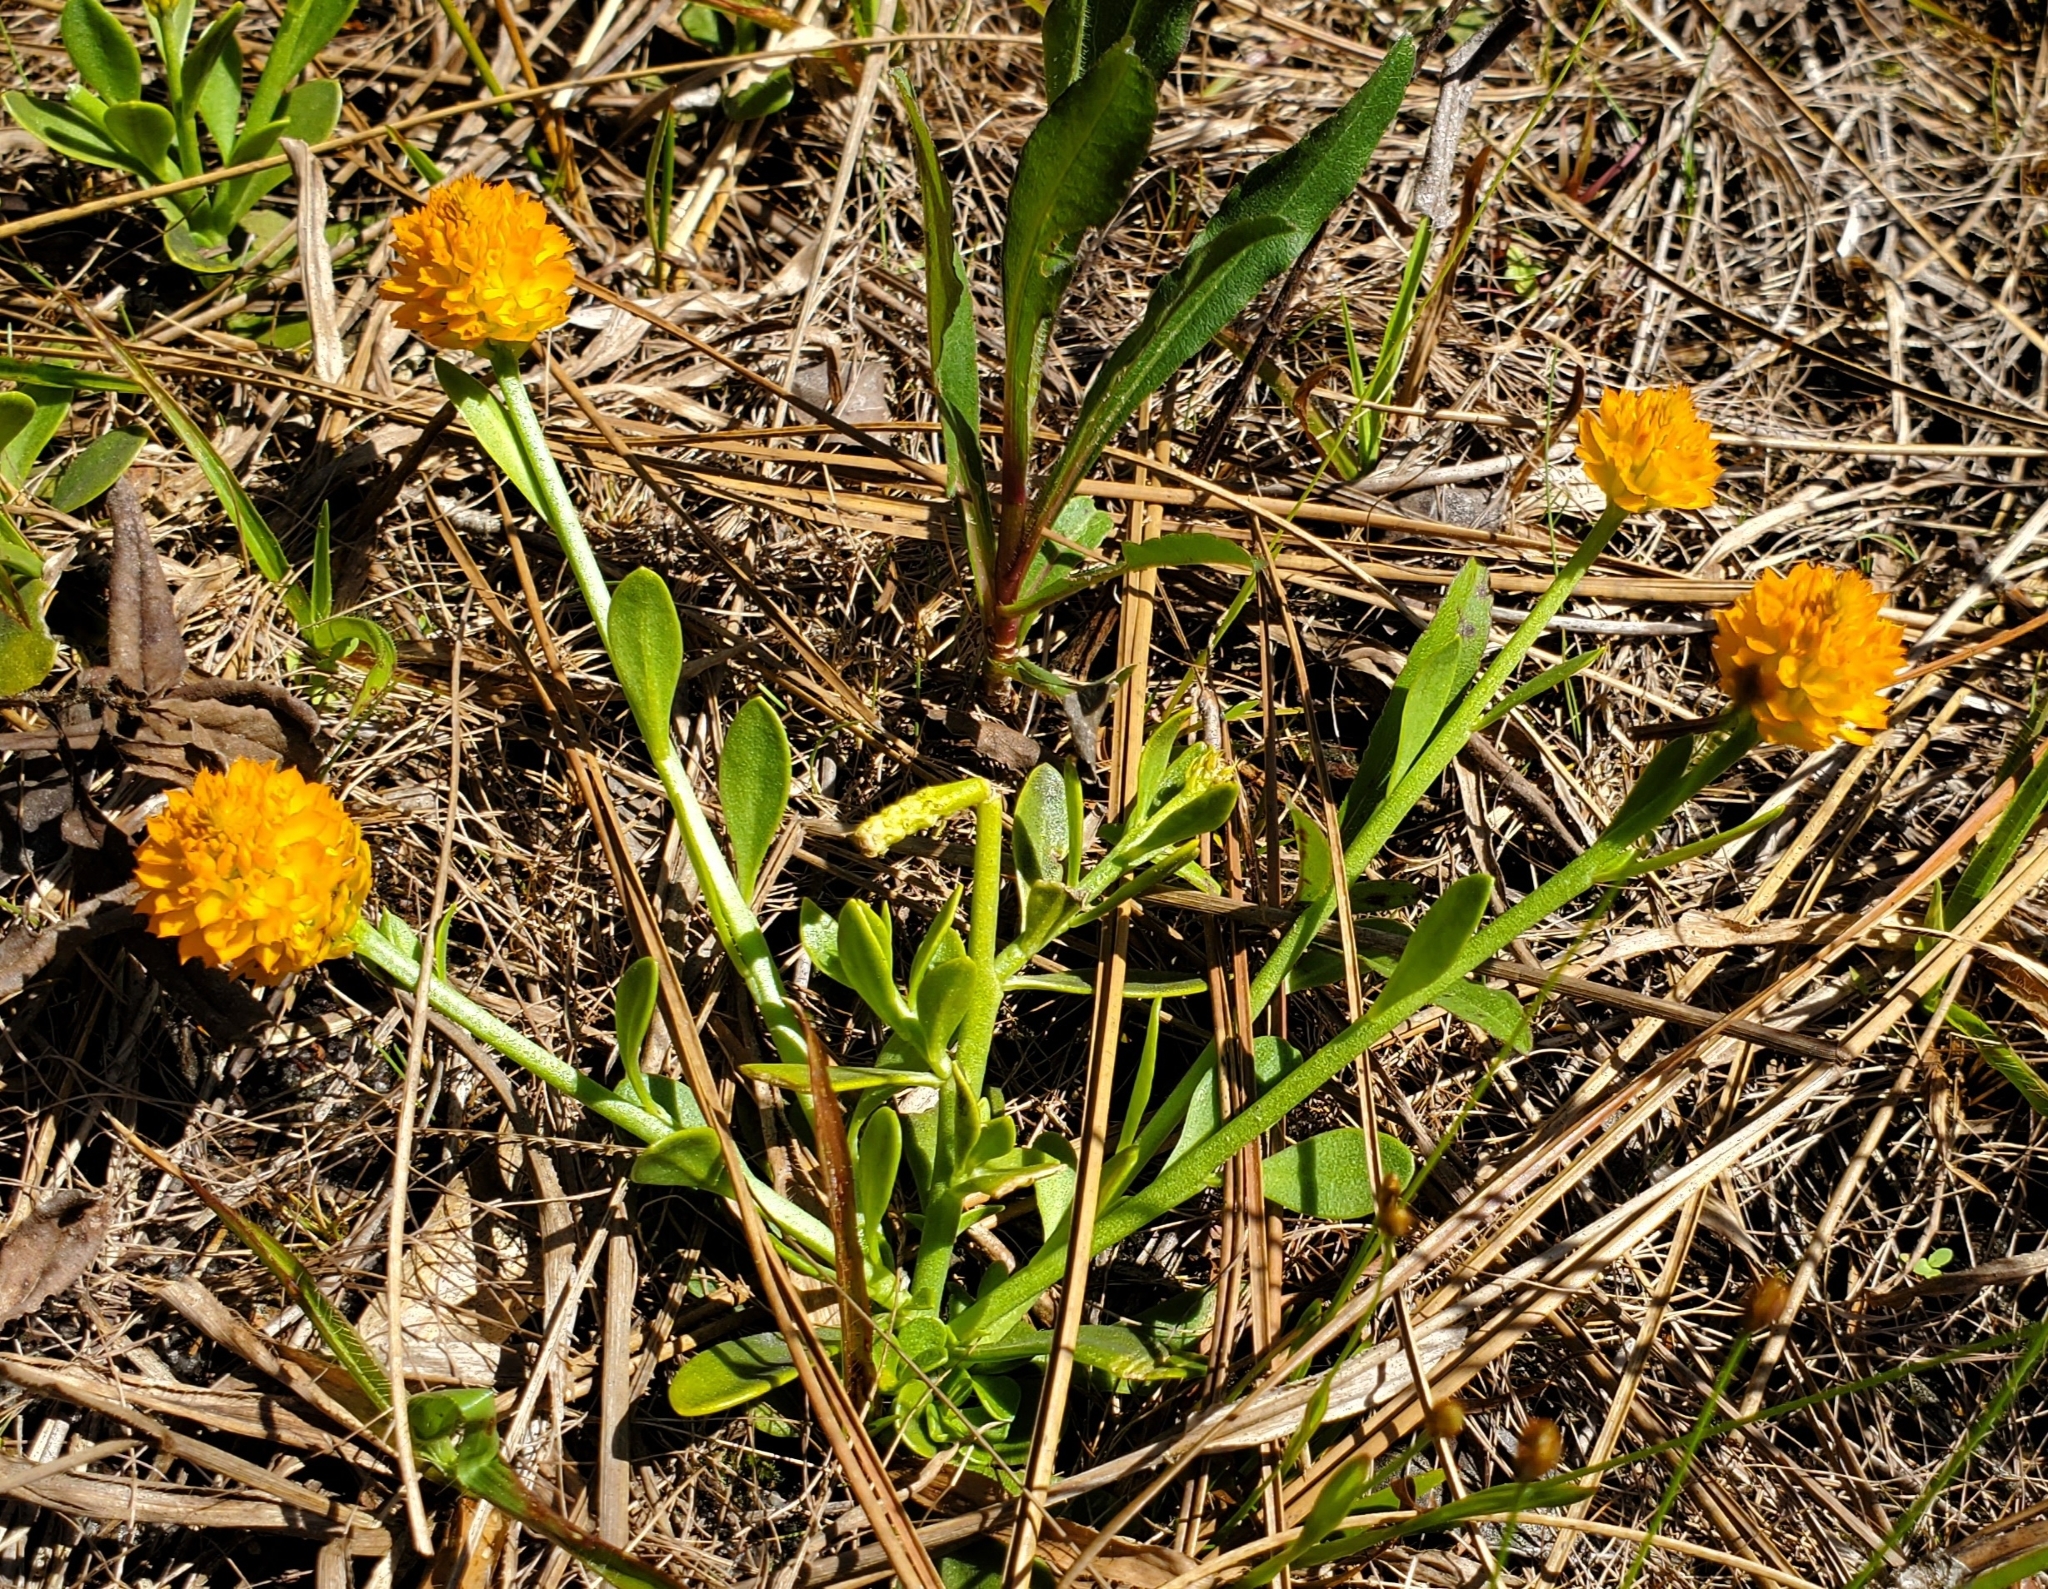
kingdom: Plantae
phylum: Tracheophyta
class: Magnoliopsida
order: Fabales
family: Polygalaceae
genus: Polygala
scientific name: Polygala lutea
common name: Orange milkwort
